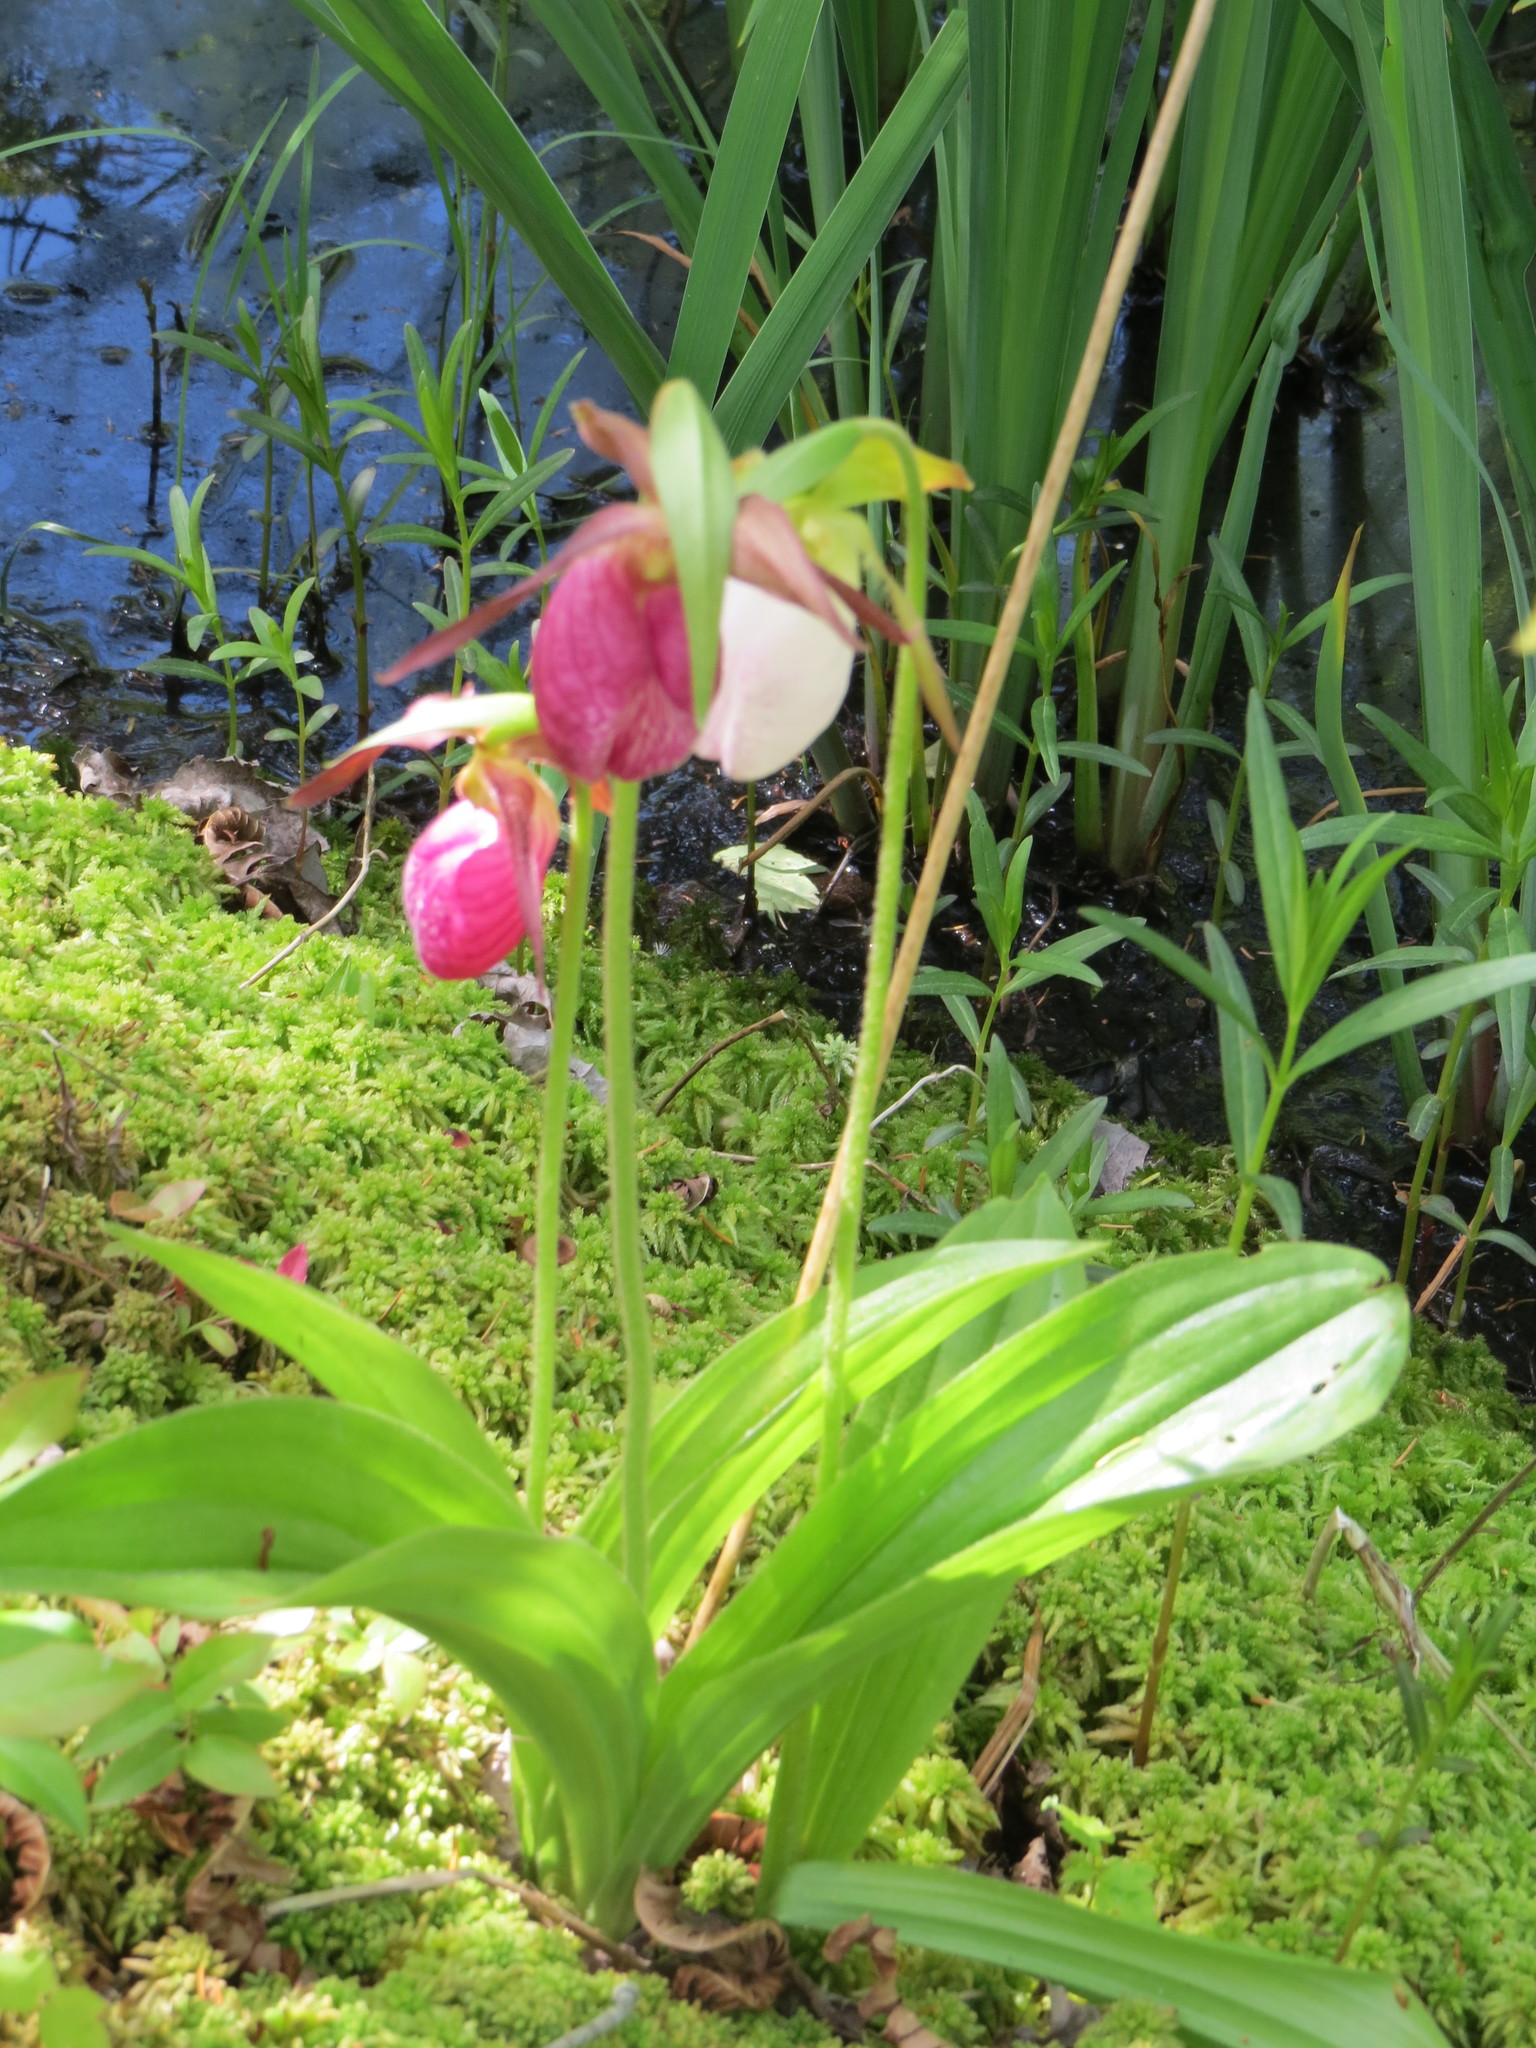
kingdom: Plantae
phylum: Tracheophyta
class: Liliopsida
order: Asparagales
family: Orchidaceae
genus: Cypripedium
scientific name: Cypripedium acaule
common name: Pink lady's-slipper
